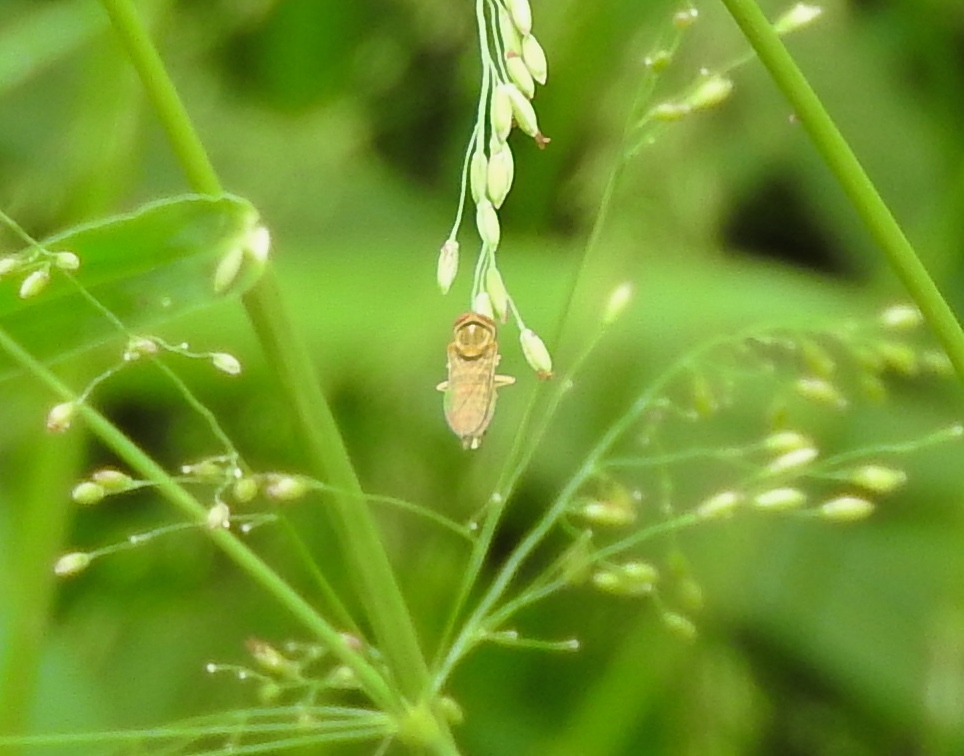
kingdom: Animalia
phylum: Arthropoda
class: Insecta
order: Diptera
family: Syrphidae
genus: Toxomerus
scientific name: Toxomerus
